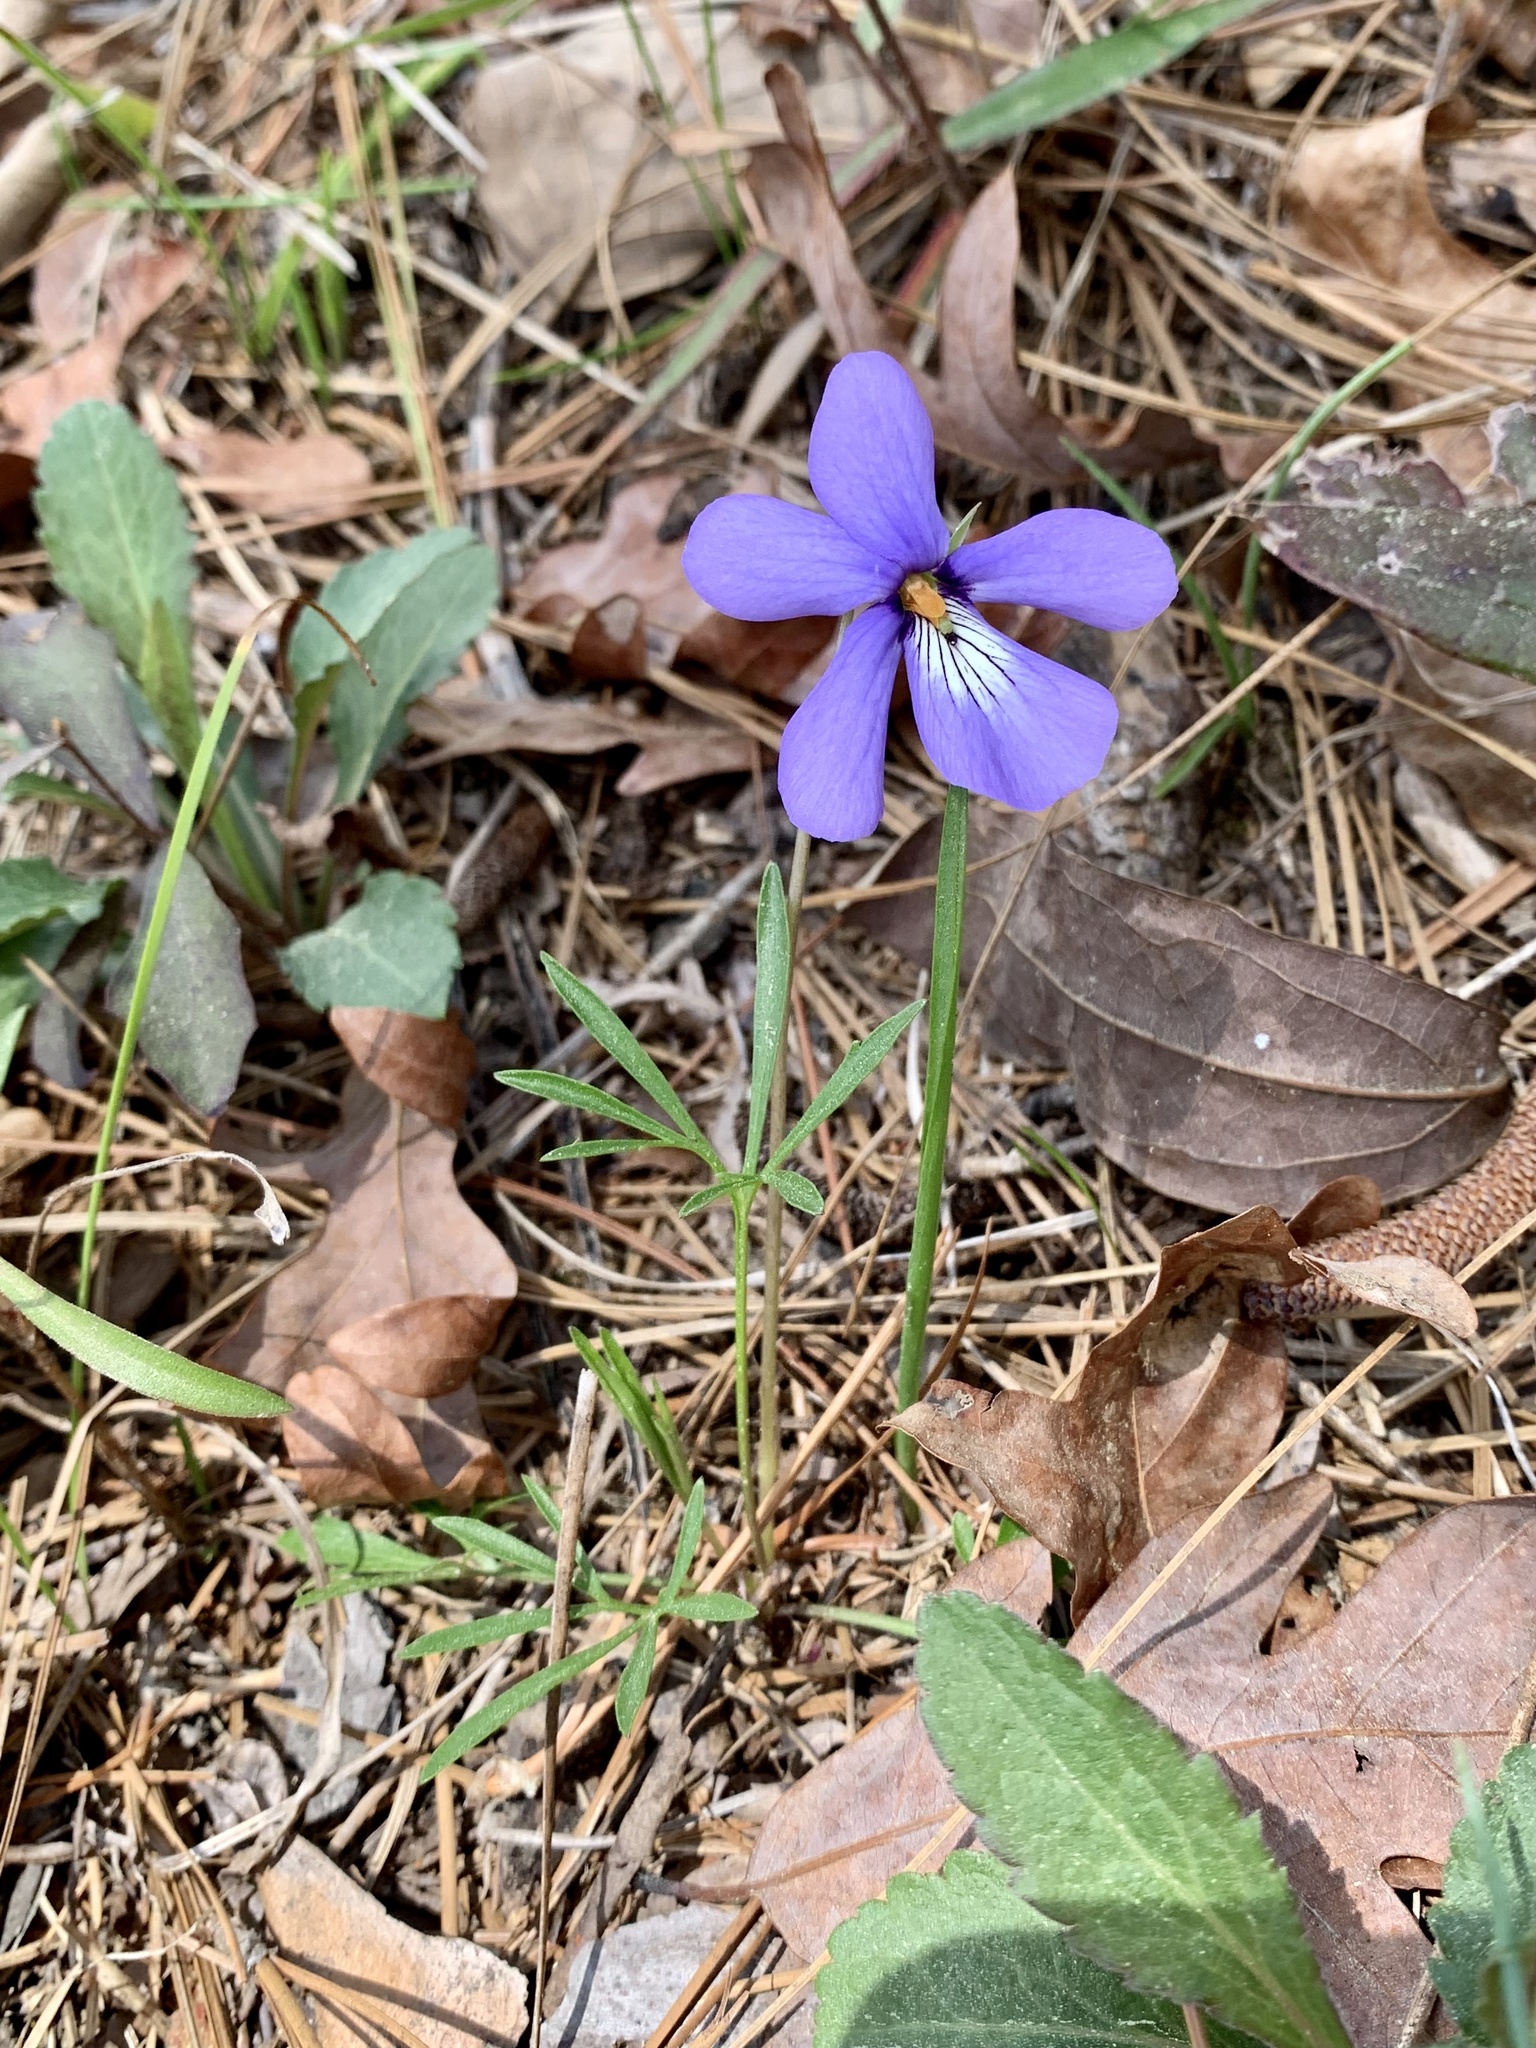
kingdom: Plantae
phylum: Tracheophyta
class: Magnoliopsida
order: Malpighiales
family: Violaceae
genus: Viola
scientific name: Viola pedata
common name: Pansy violet
